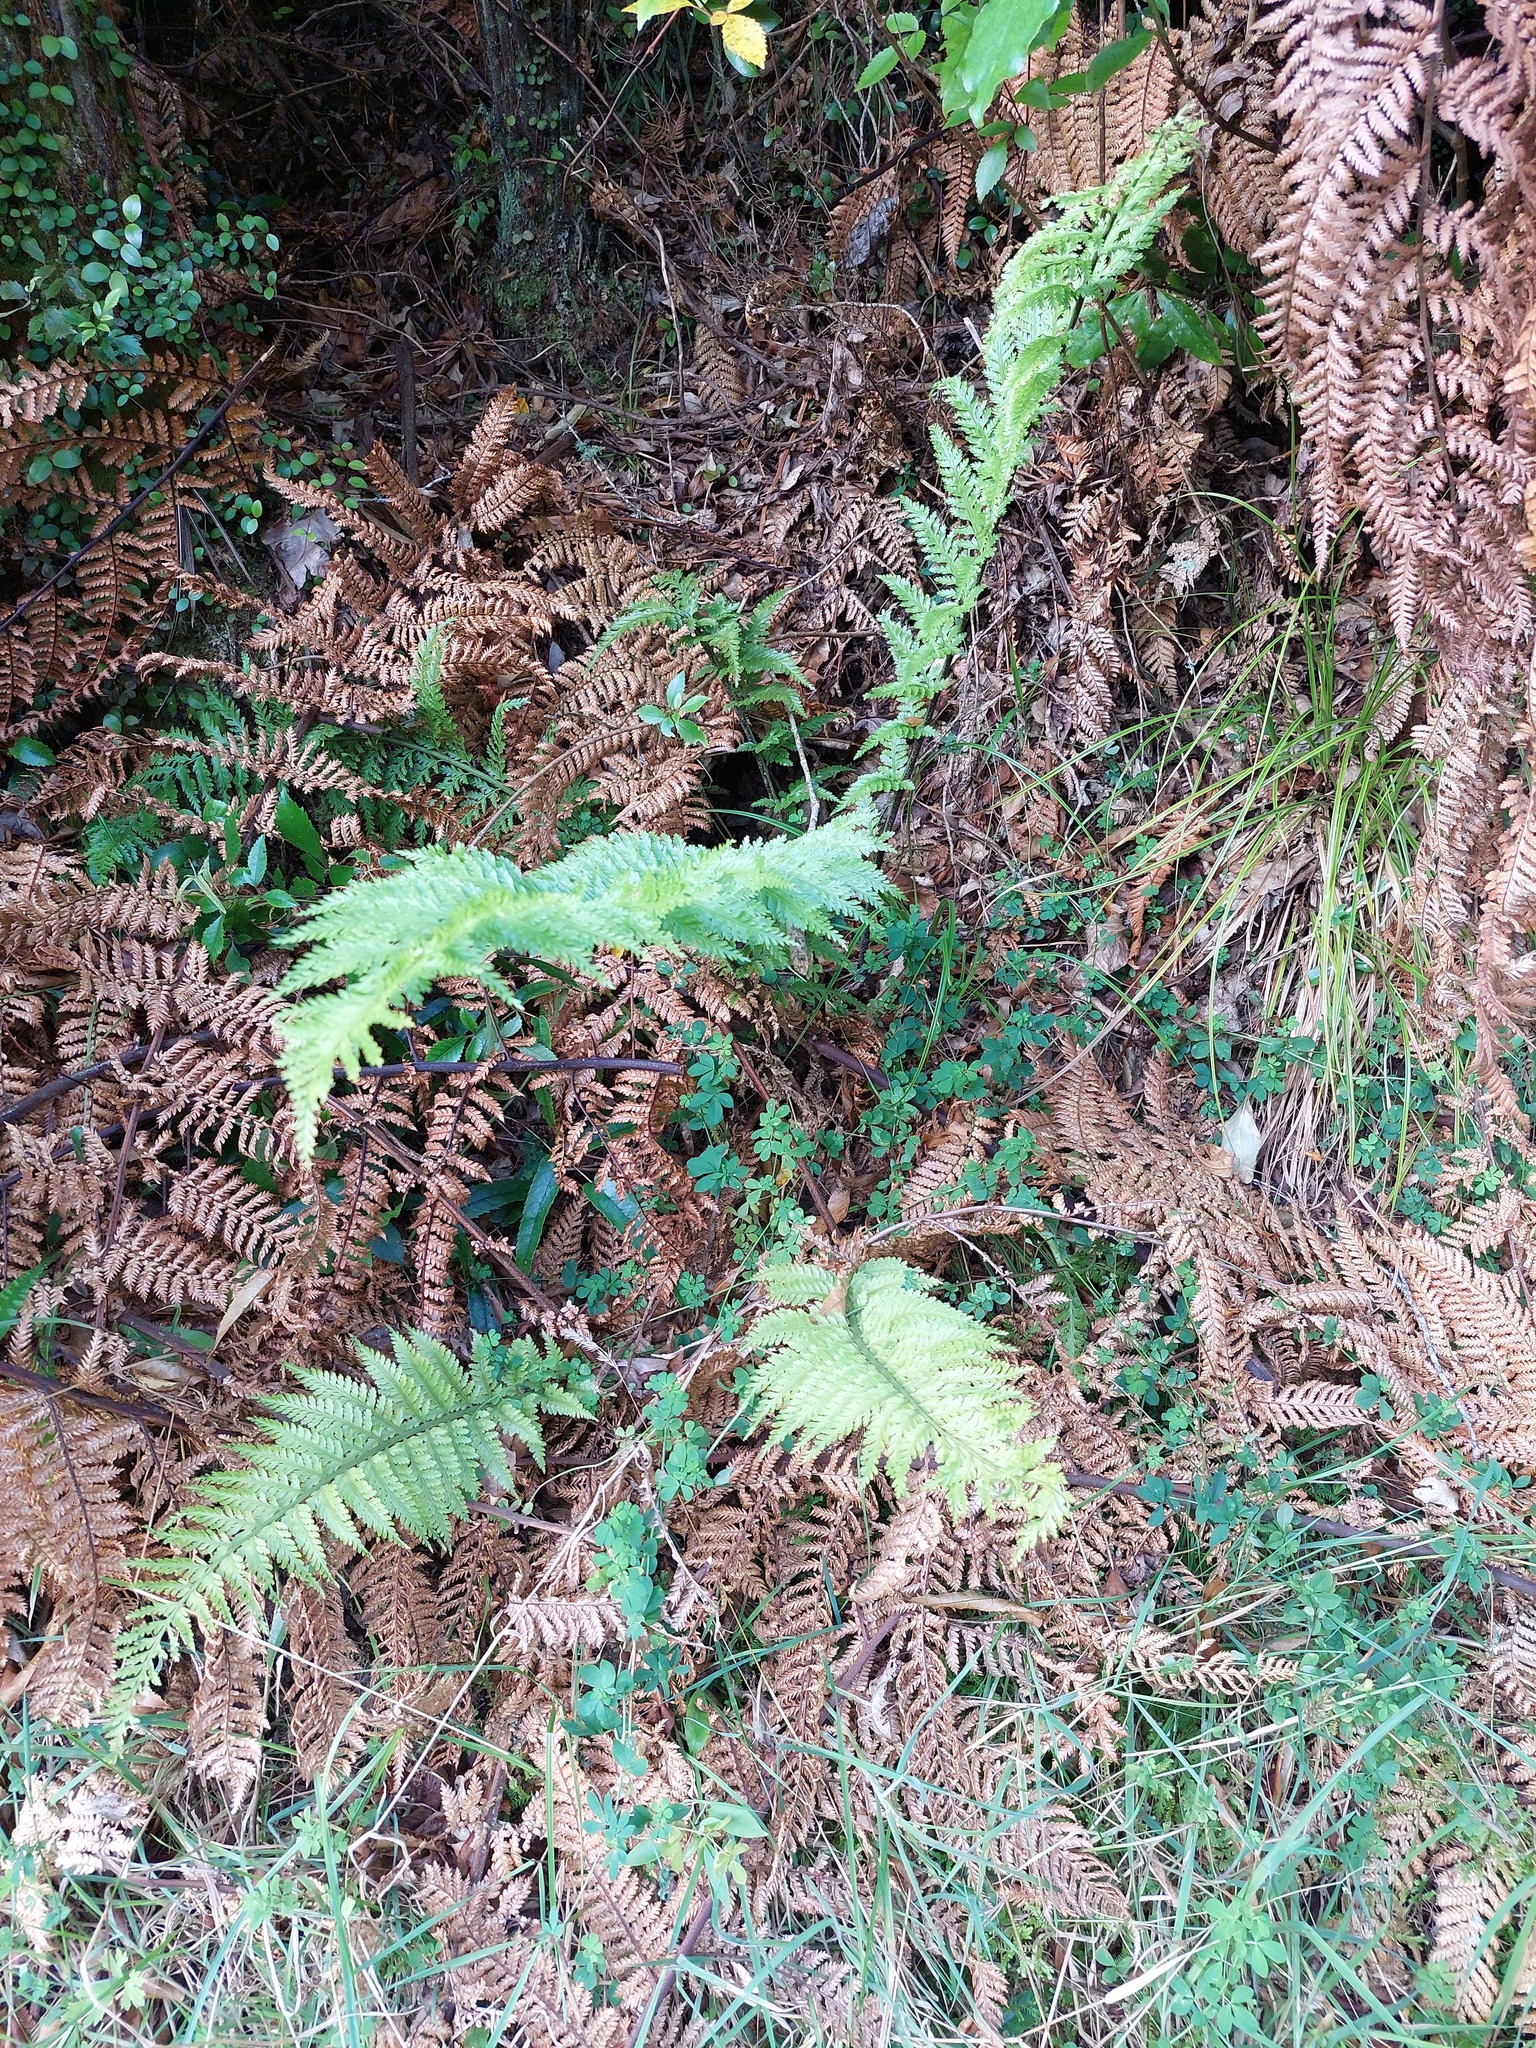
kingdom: Plantae
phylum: Tracheophyta
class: Polypodiopsida
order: Polypodiales
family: Aspleniaceae
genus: Asplenium
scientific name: Asplenium bulbiferum
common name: Mother fern
